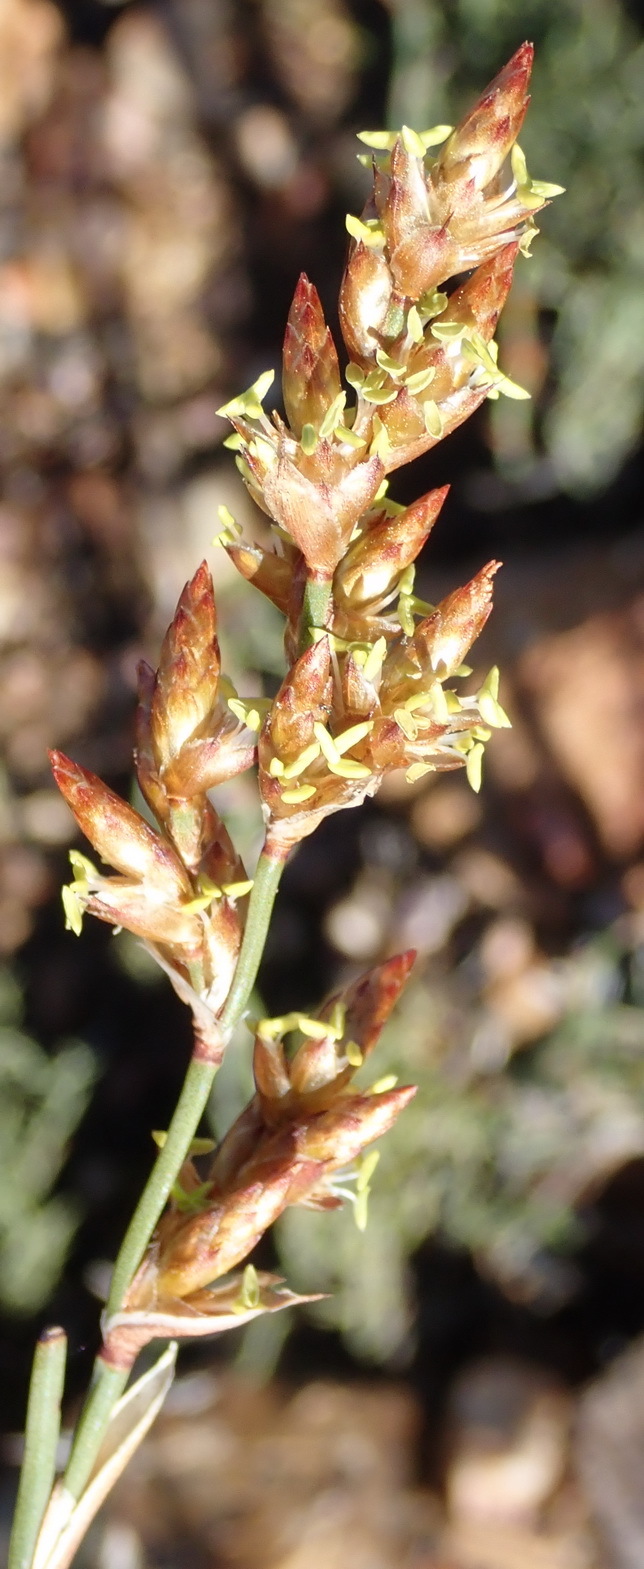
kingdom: Plantae
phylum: Tracheophyta
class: Liliopsida
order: Poales
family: Restionaceae
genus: Restio
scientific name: Restio vimineus
